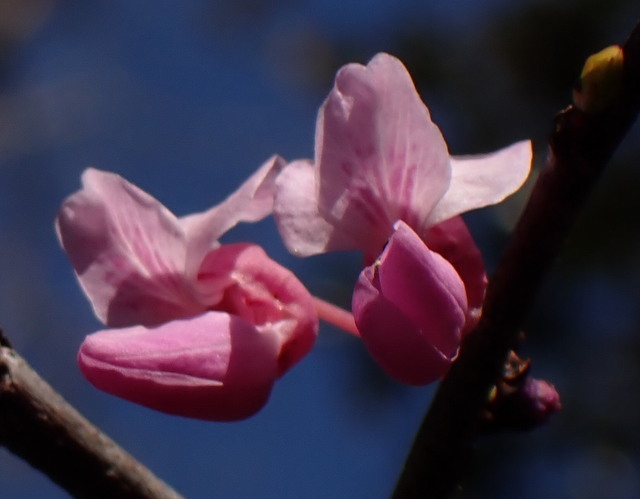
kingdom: Plantae
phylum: Tracheophyta
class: Magnoliopsida
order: Fabales
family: Fabaceae
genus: Cercis
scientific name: Cercis canadensis
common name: Eastern redbud
